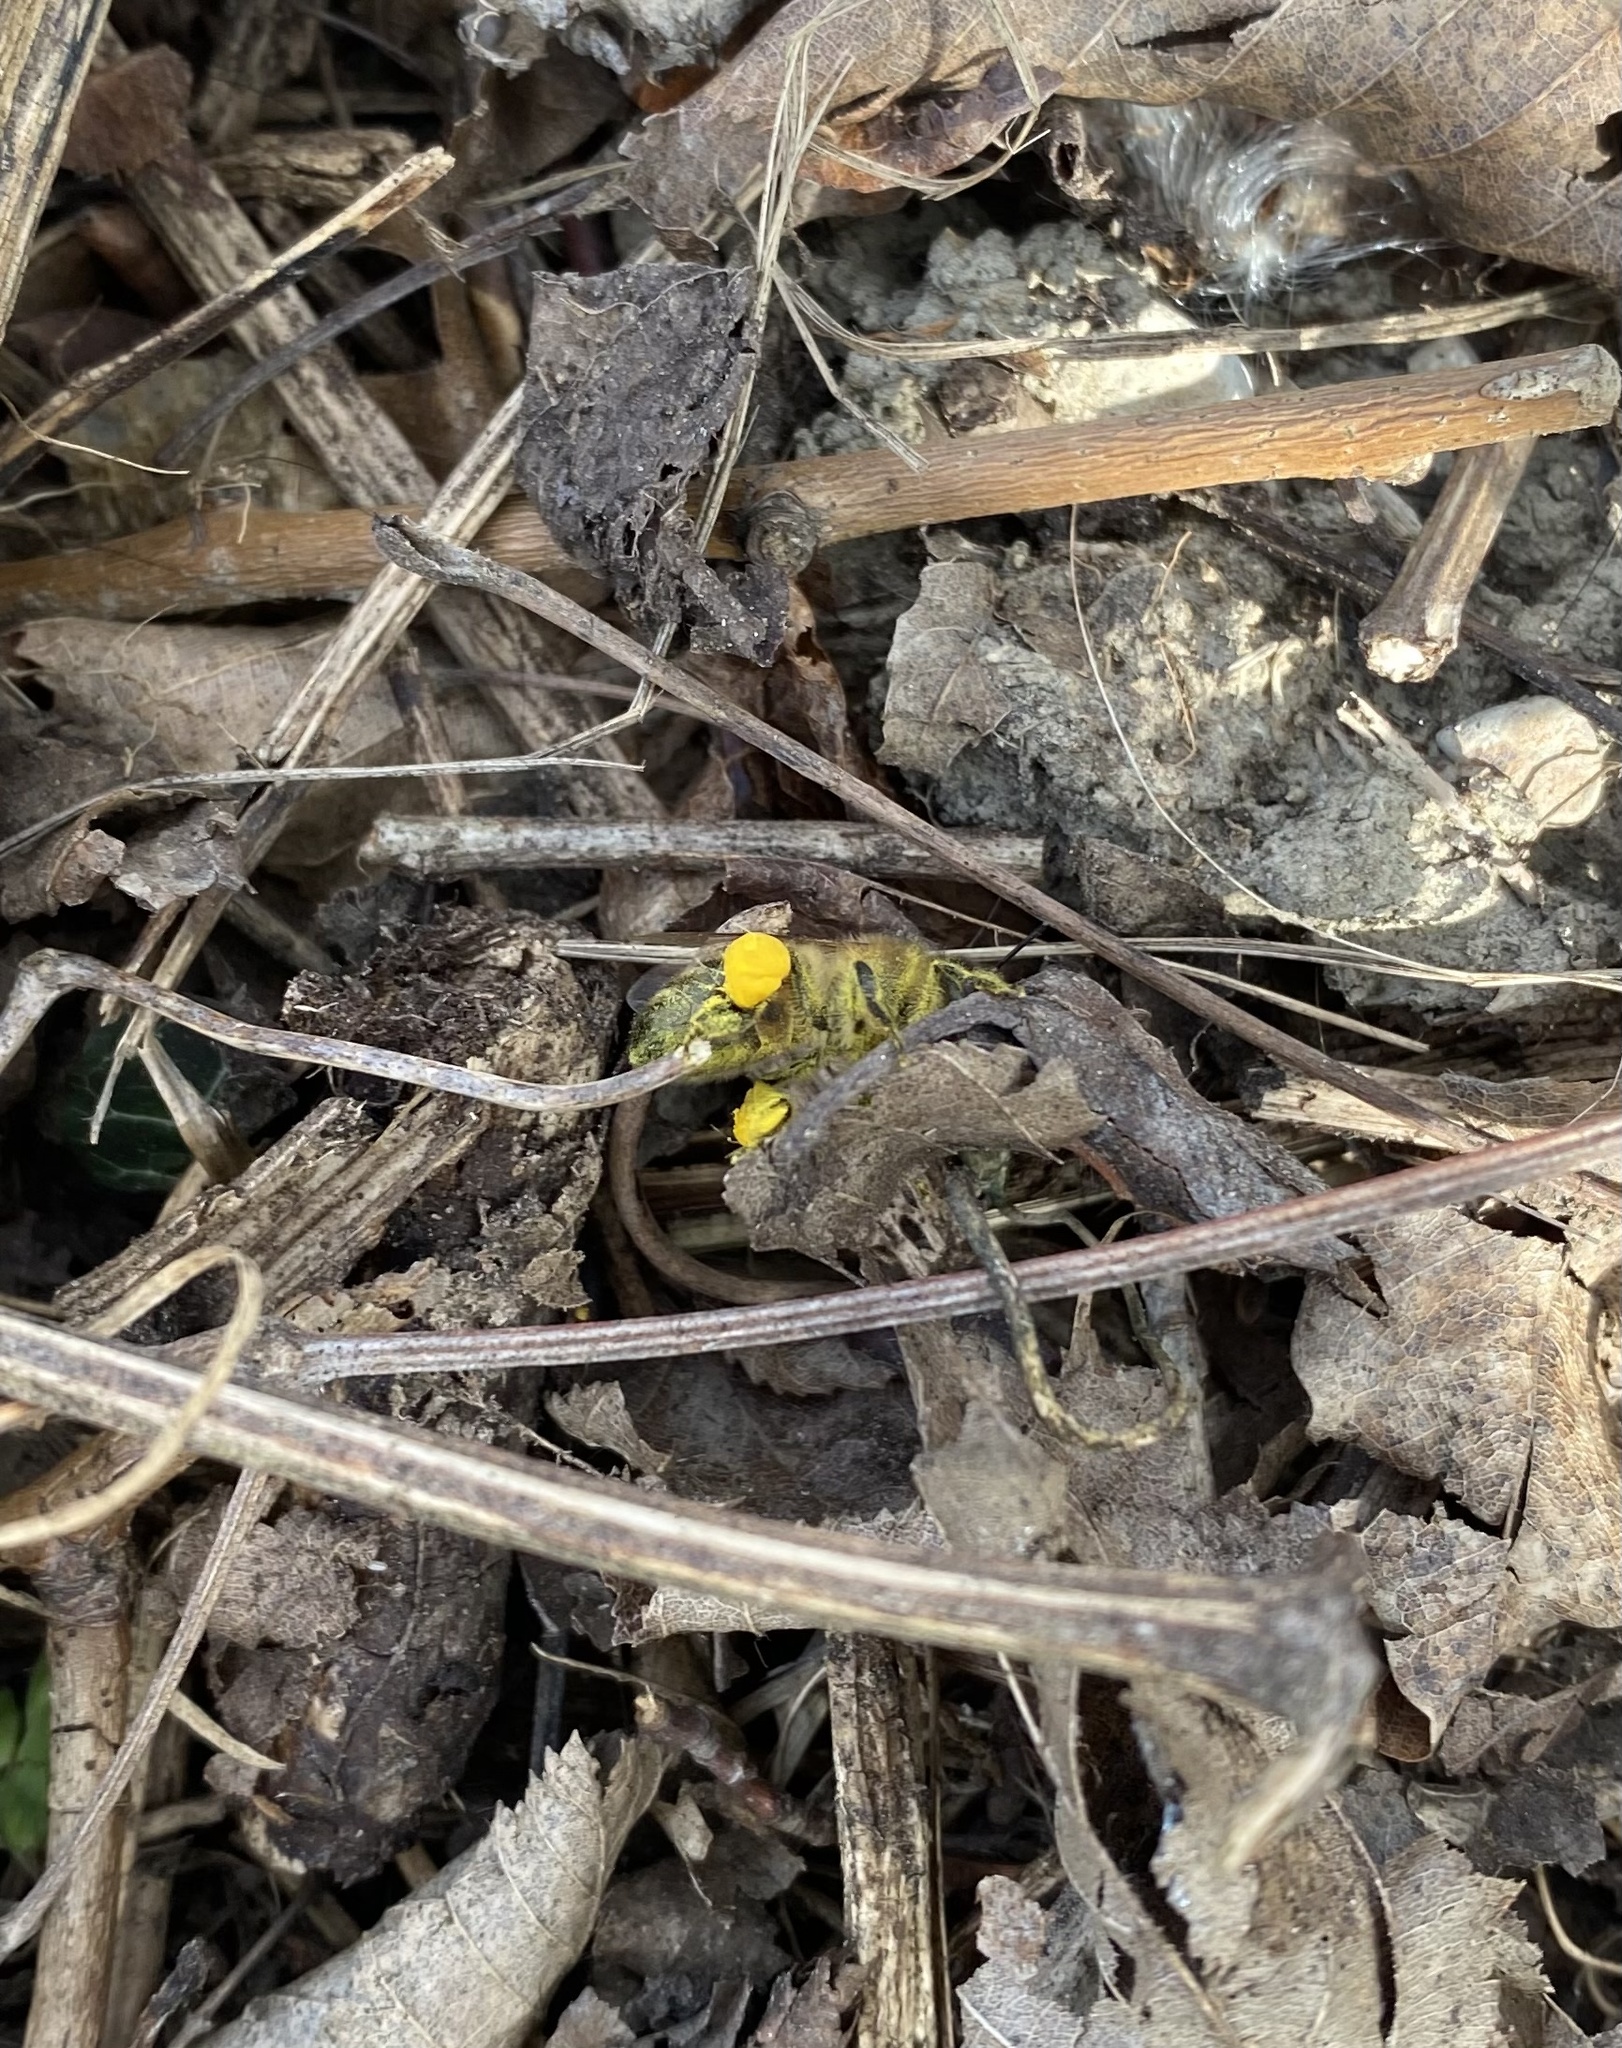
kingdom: Animalia
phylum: Arthropoda
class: Insecta
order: Hymenoptera
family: Apidae
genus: Apis
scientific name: Apis mellifera
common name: Honey bee
